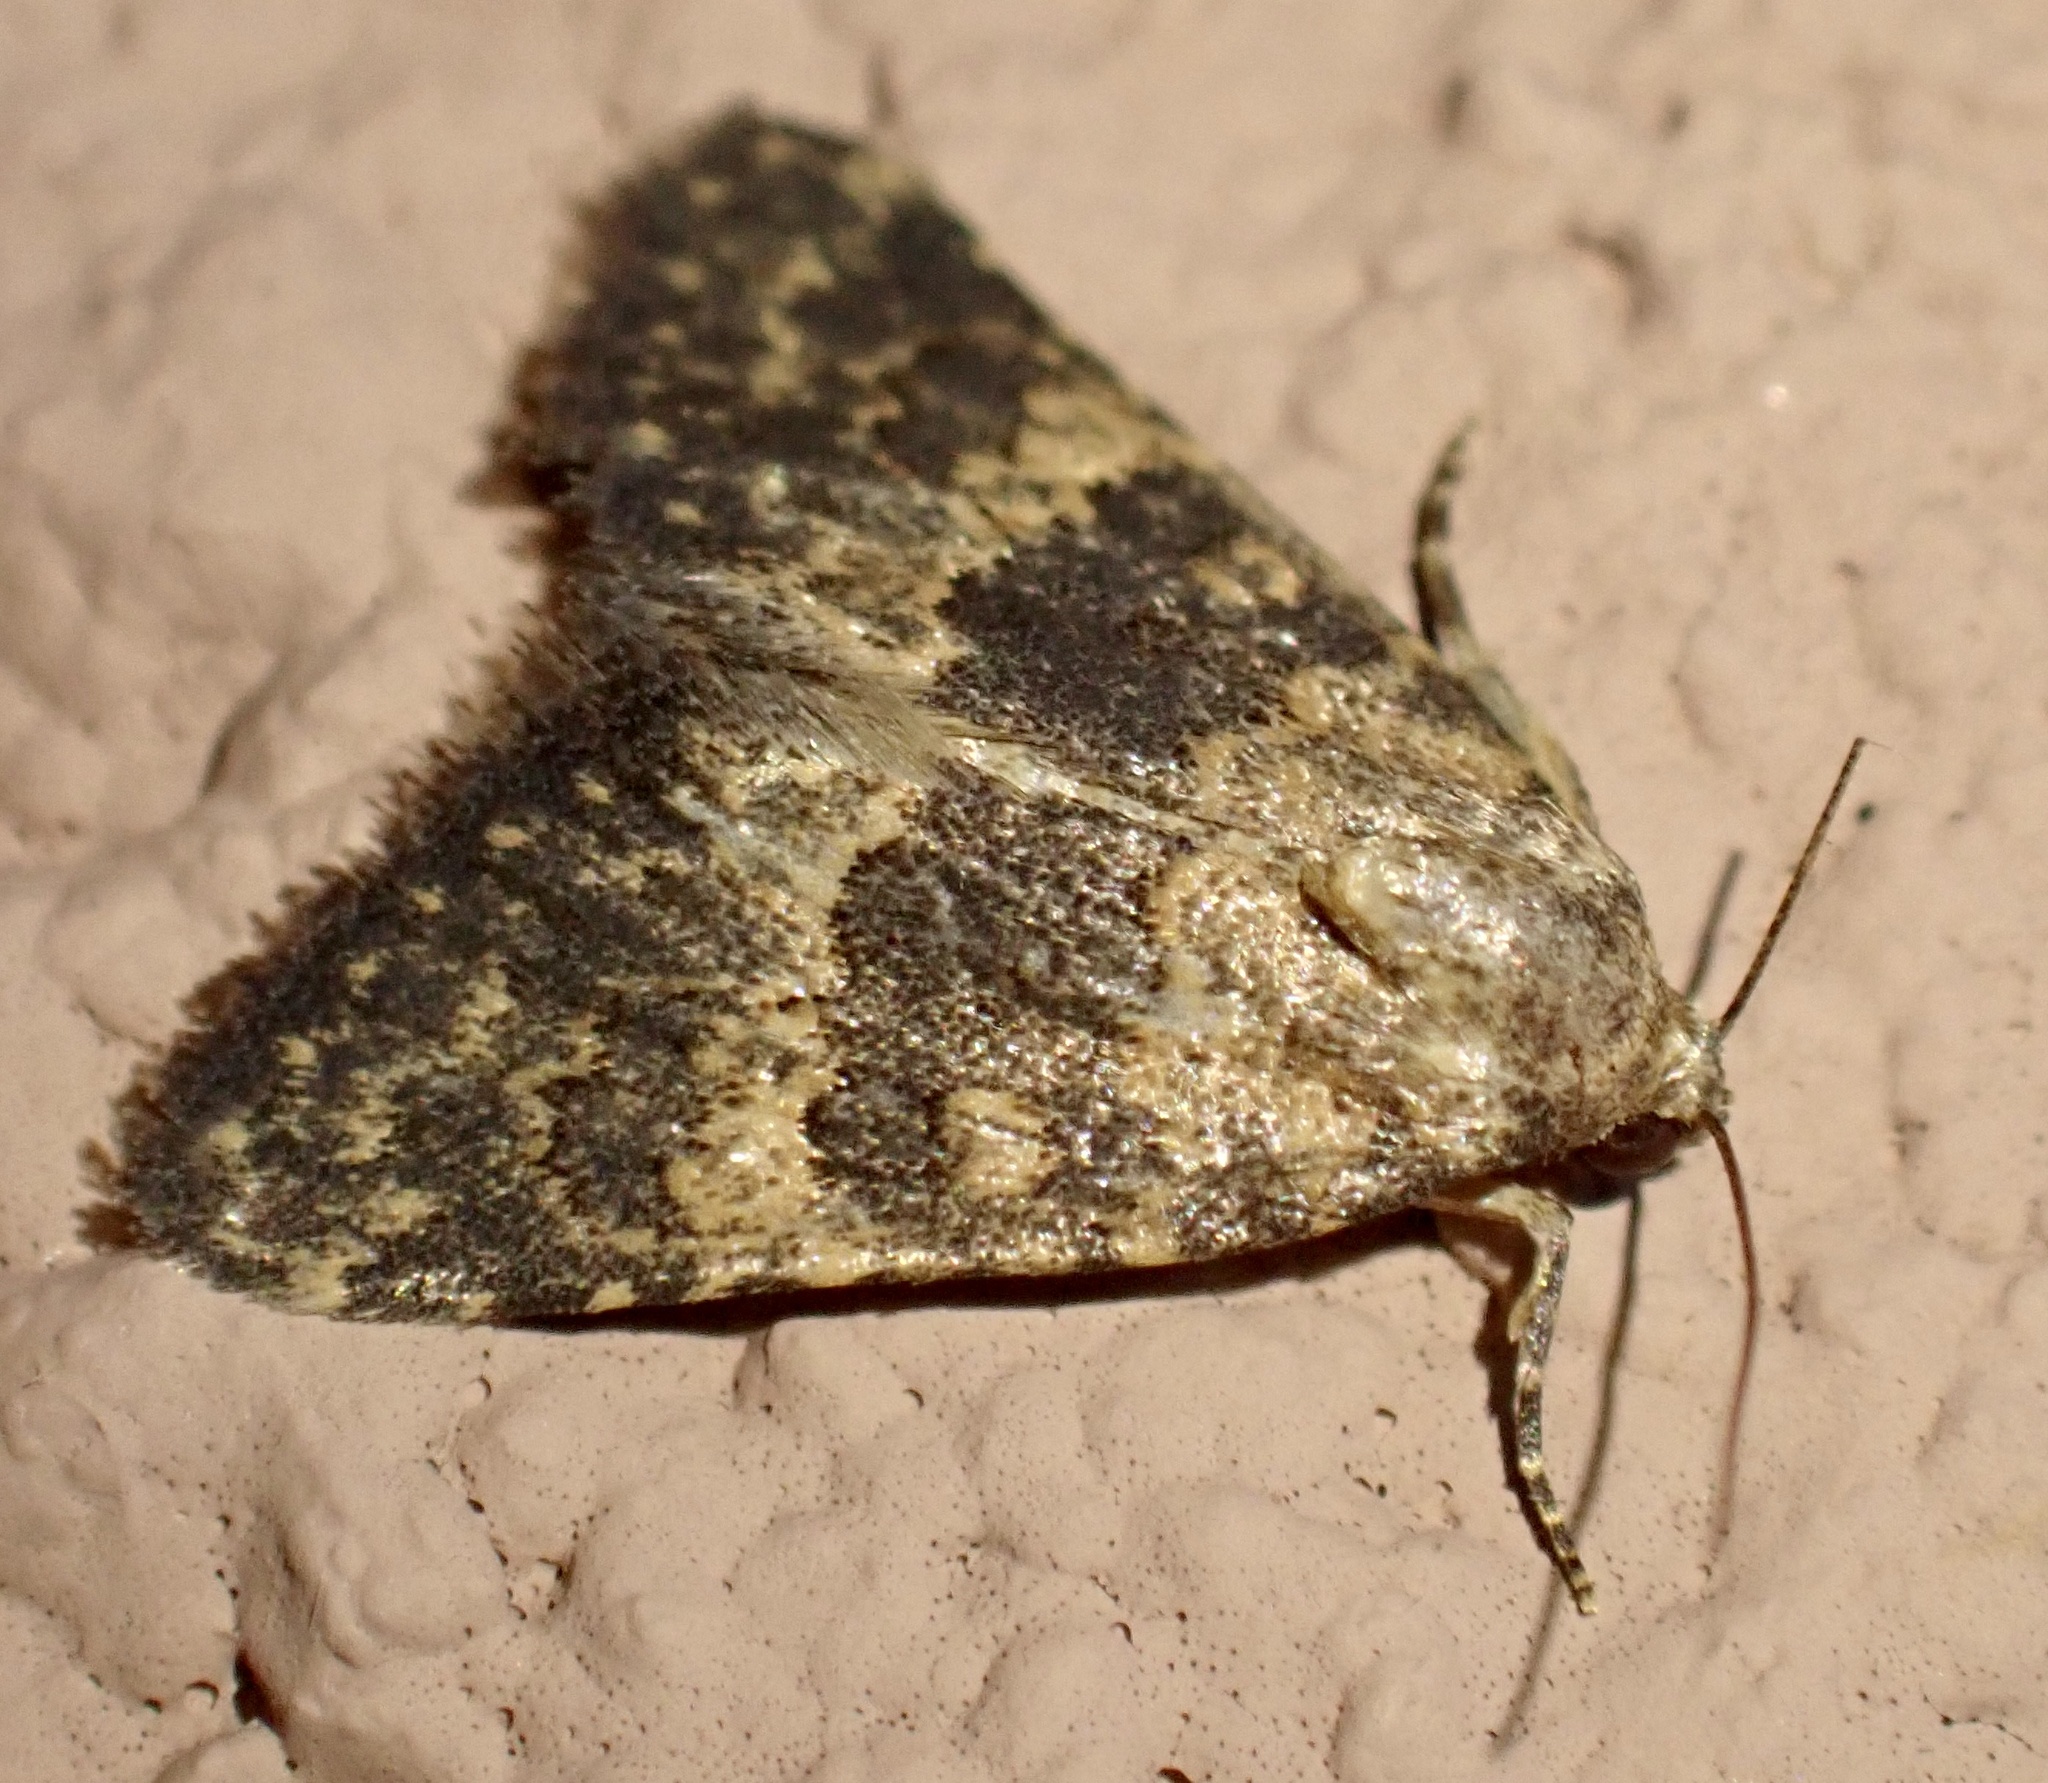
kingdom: Animalia
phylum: Arthropoda
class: Insecta
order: Lepidoptera
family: Noctuidae
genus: Duhemia
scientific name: Duhemia variegata
